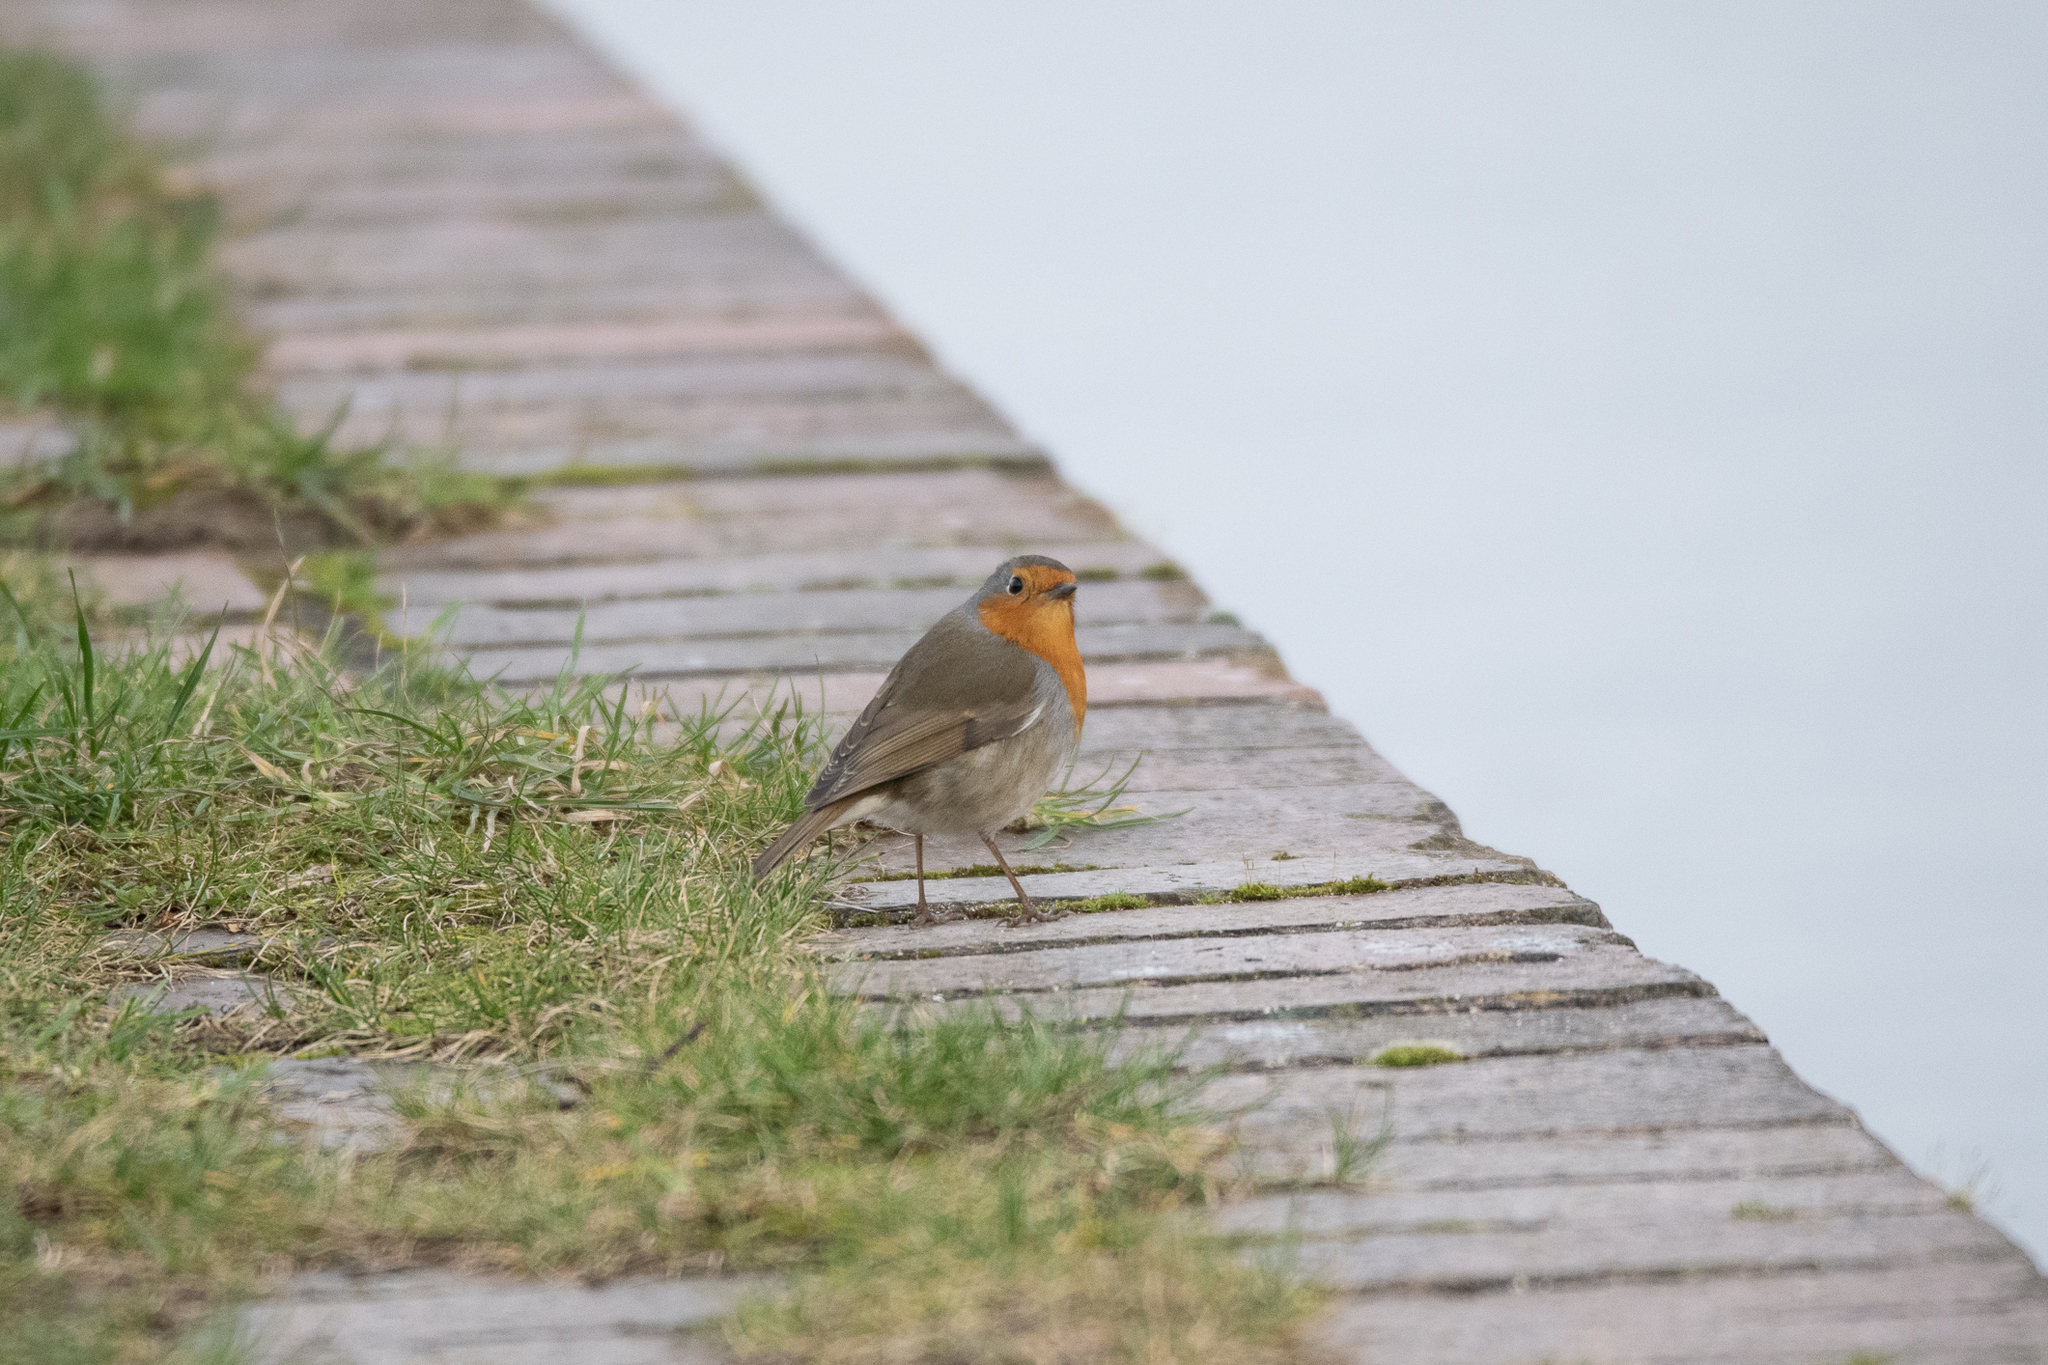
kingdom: Animalia
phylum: Chordata
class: Aves
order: Passeriformes
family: Muscicapidae
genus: Erithacus
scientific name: Erithacus rubecula
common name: European robin
